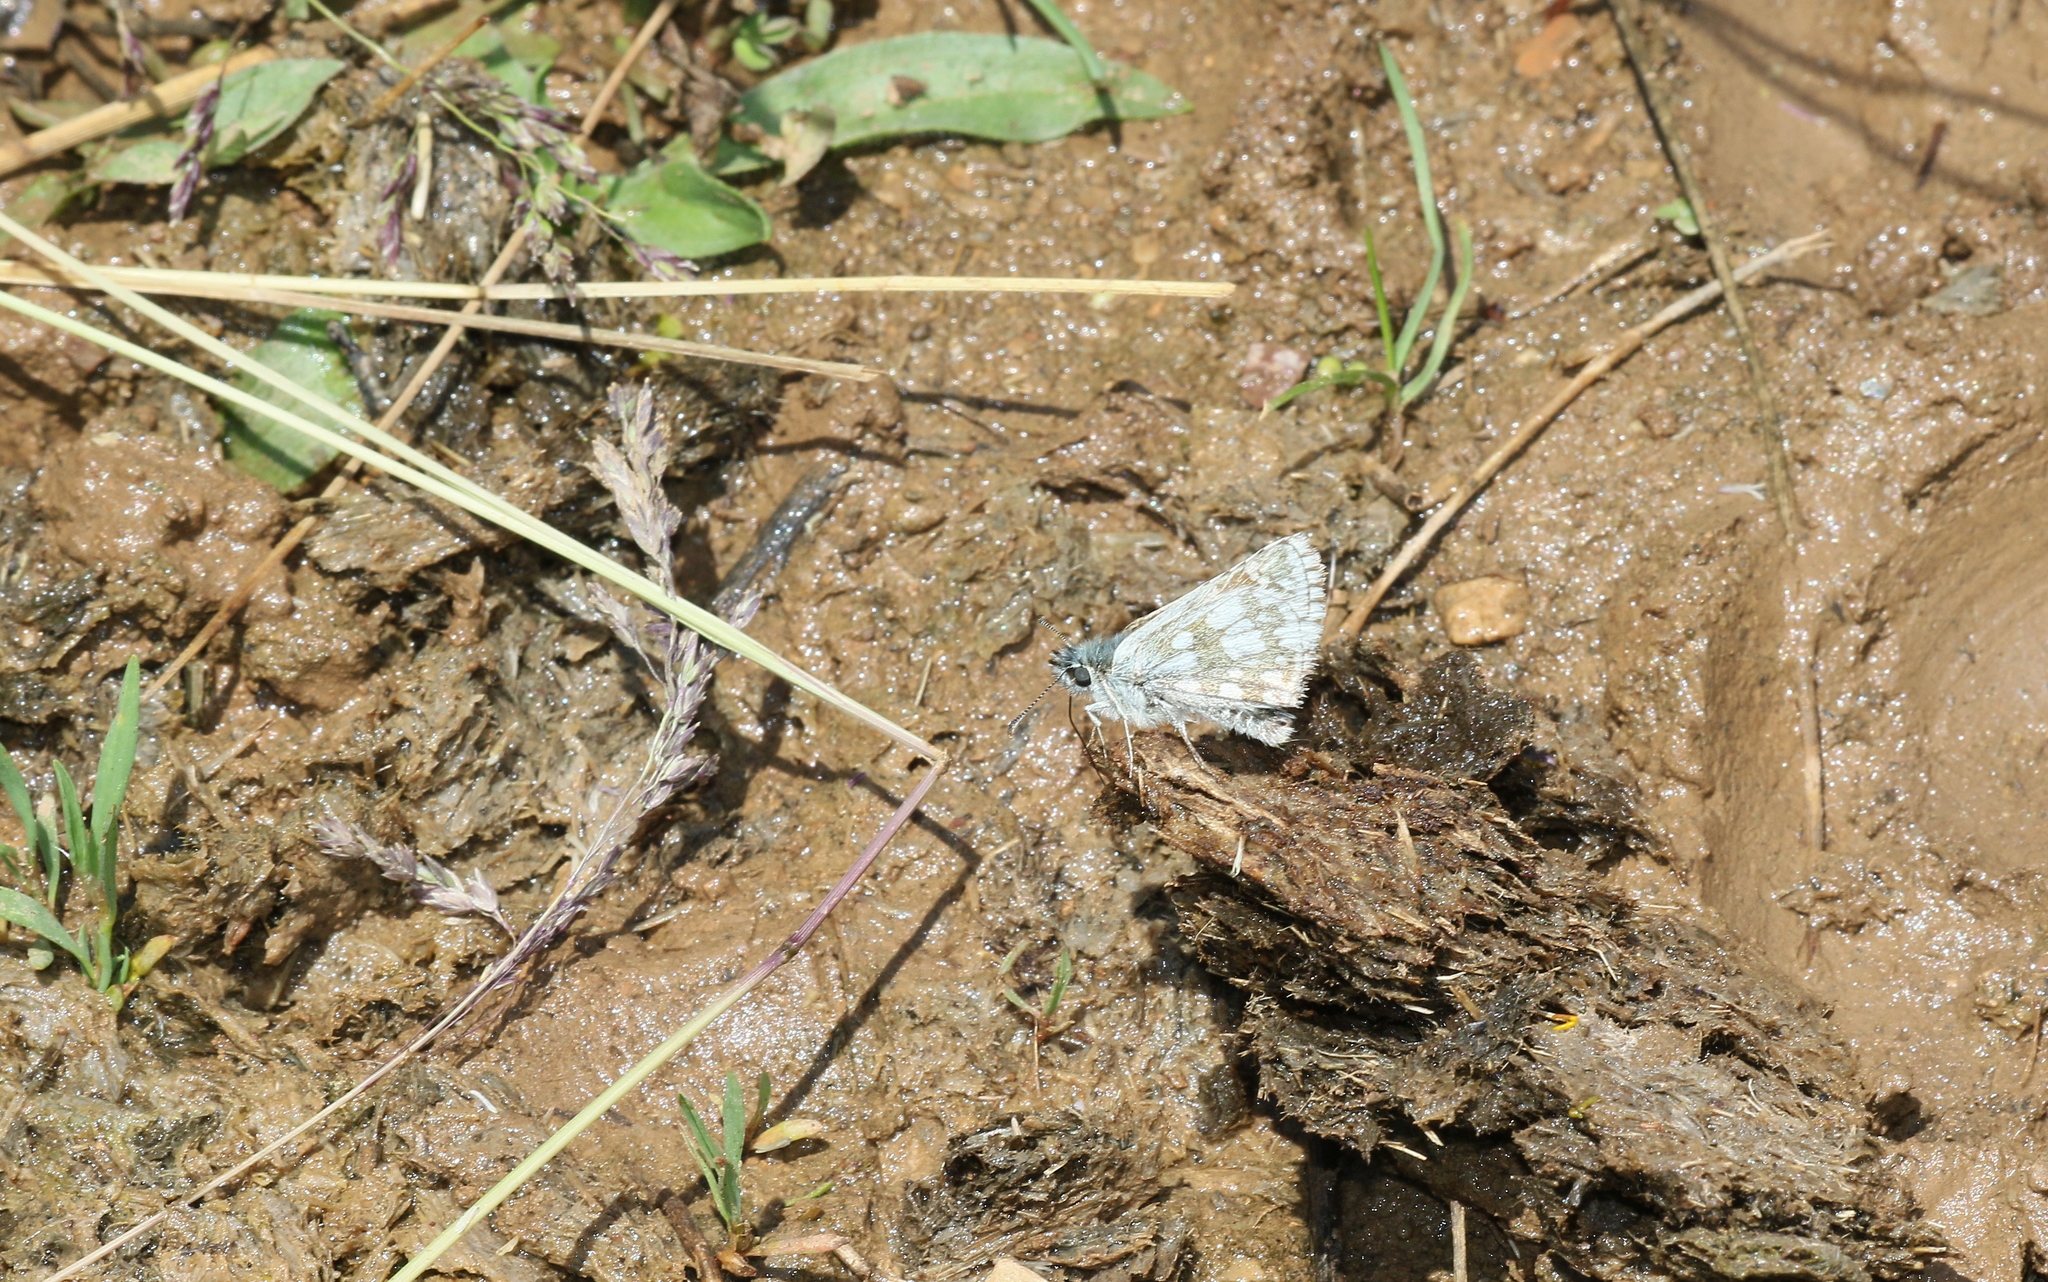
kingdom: Animalia
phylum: Arthropoda
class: Insecta
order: Lepidoptera
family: Hesperiidae
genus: Pyrgus
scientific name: Pyrgus serratulae
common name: Olive skipper
